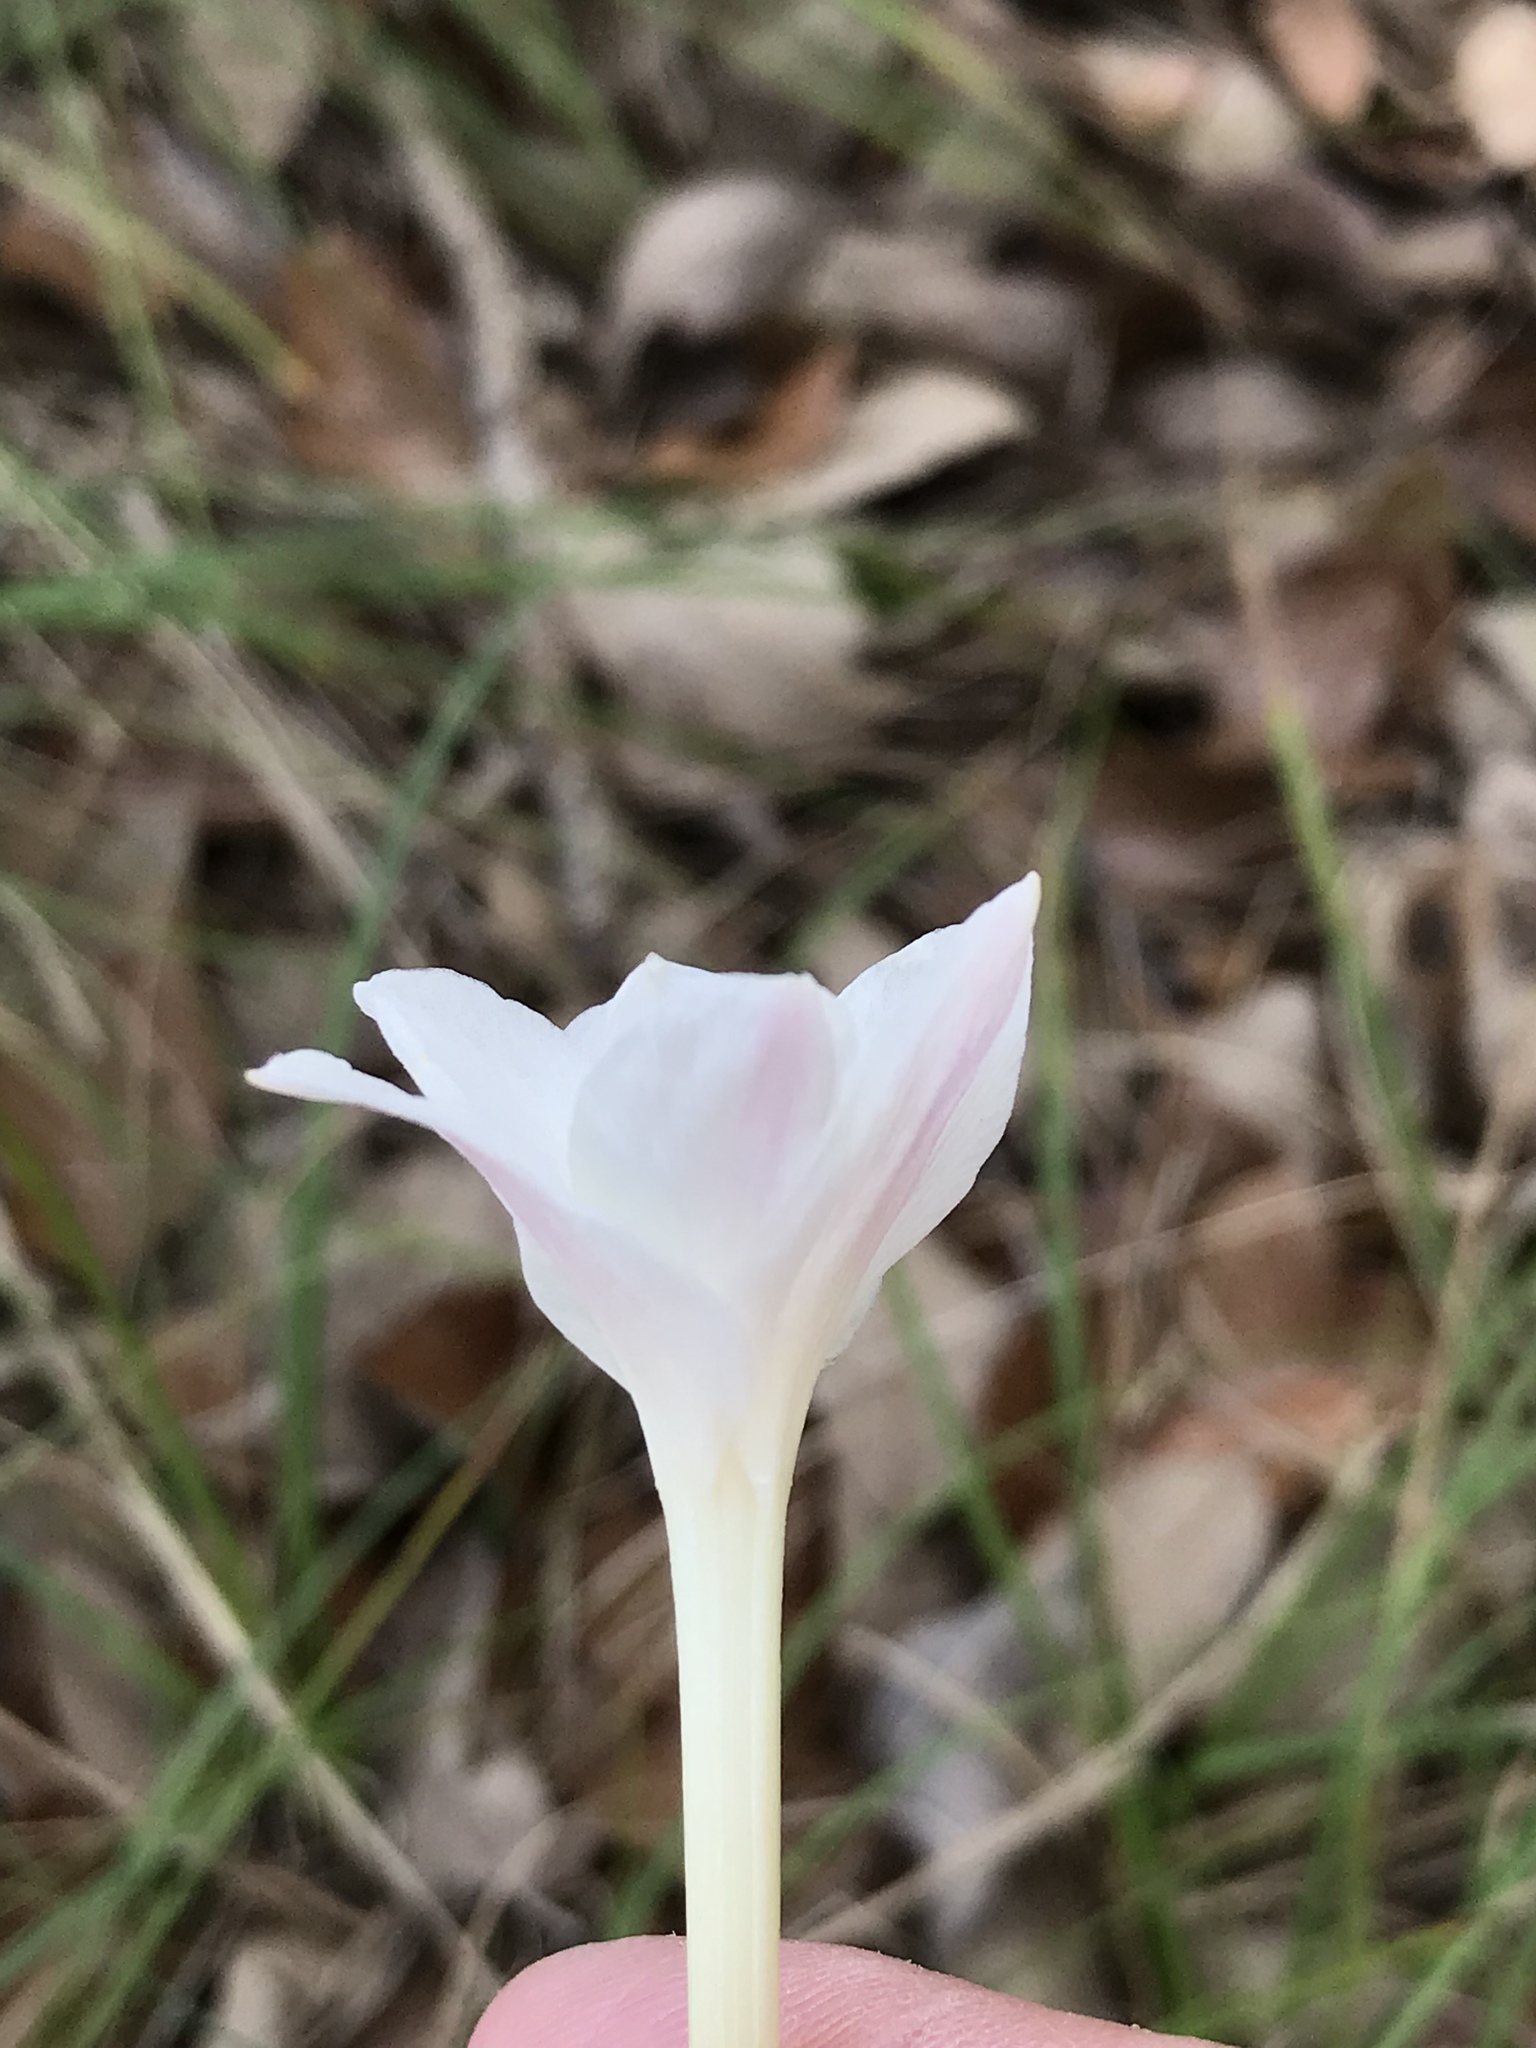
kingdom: Plantae
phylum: Tracheophyta
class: Liliopsida
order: Asparagales
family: Amaryllidaceae
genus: Zephyranthes
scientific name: Zephyranthes chlorosolen
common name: Evening rain-lily
